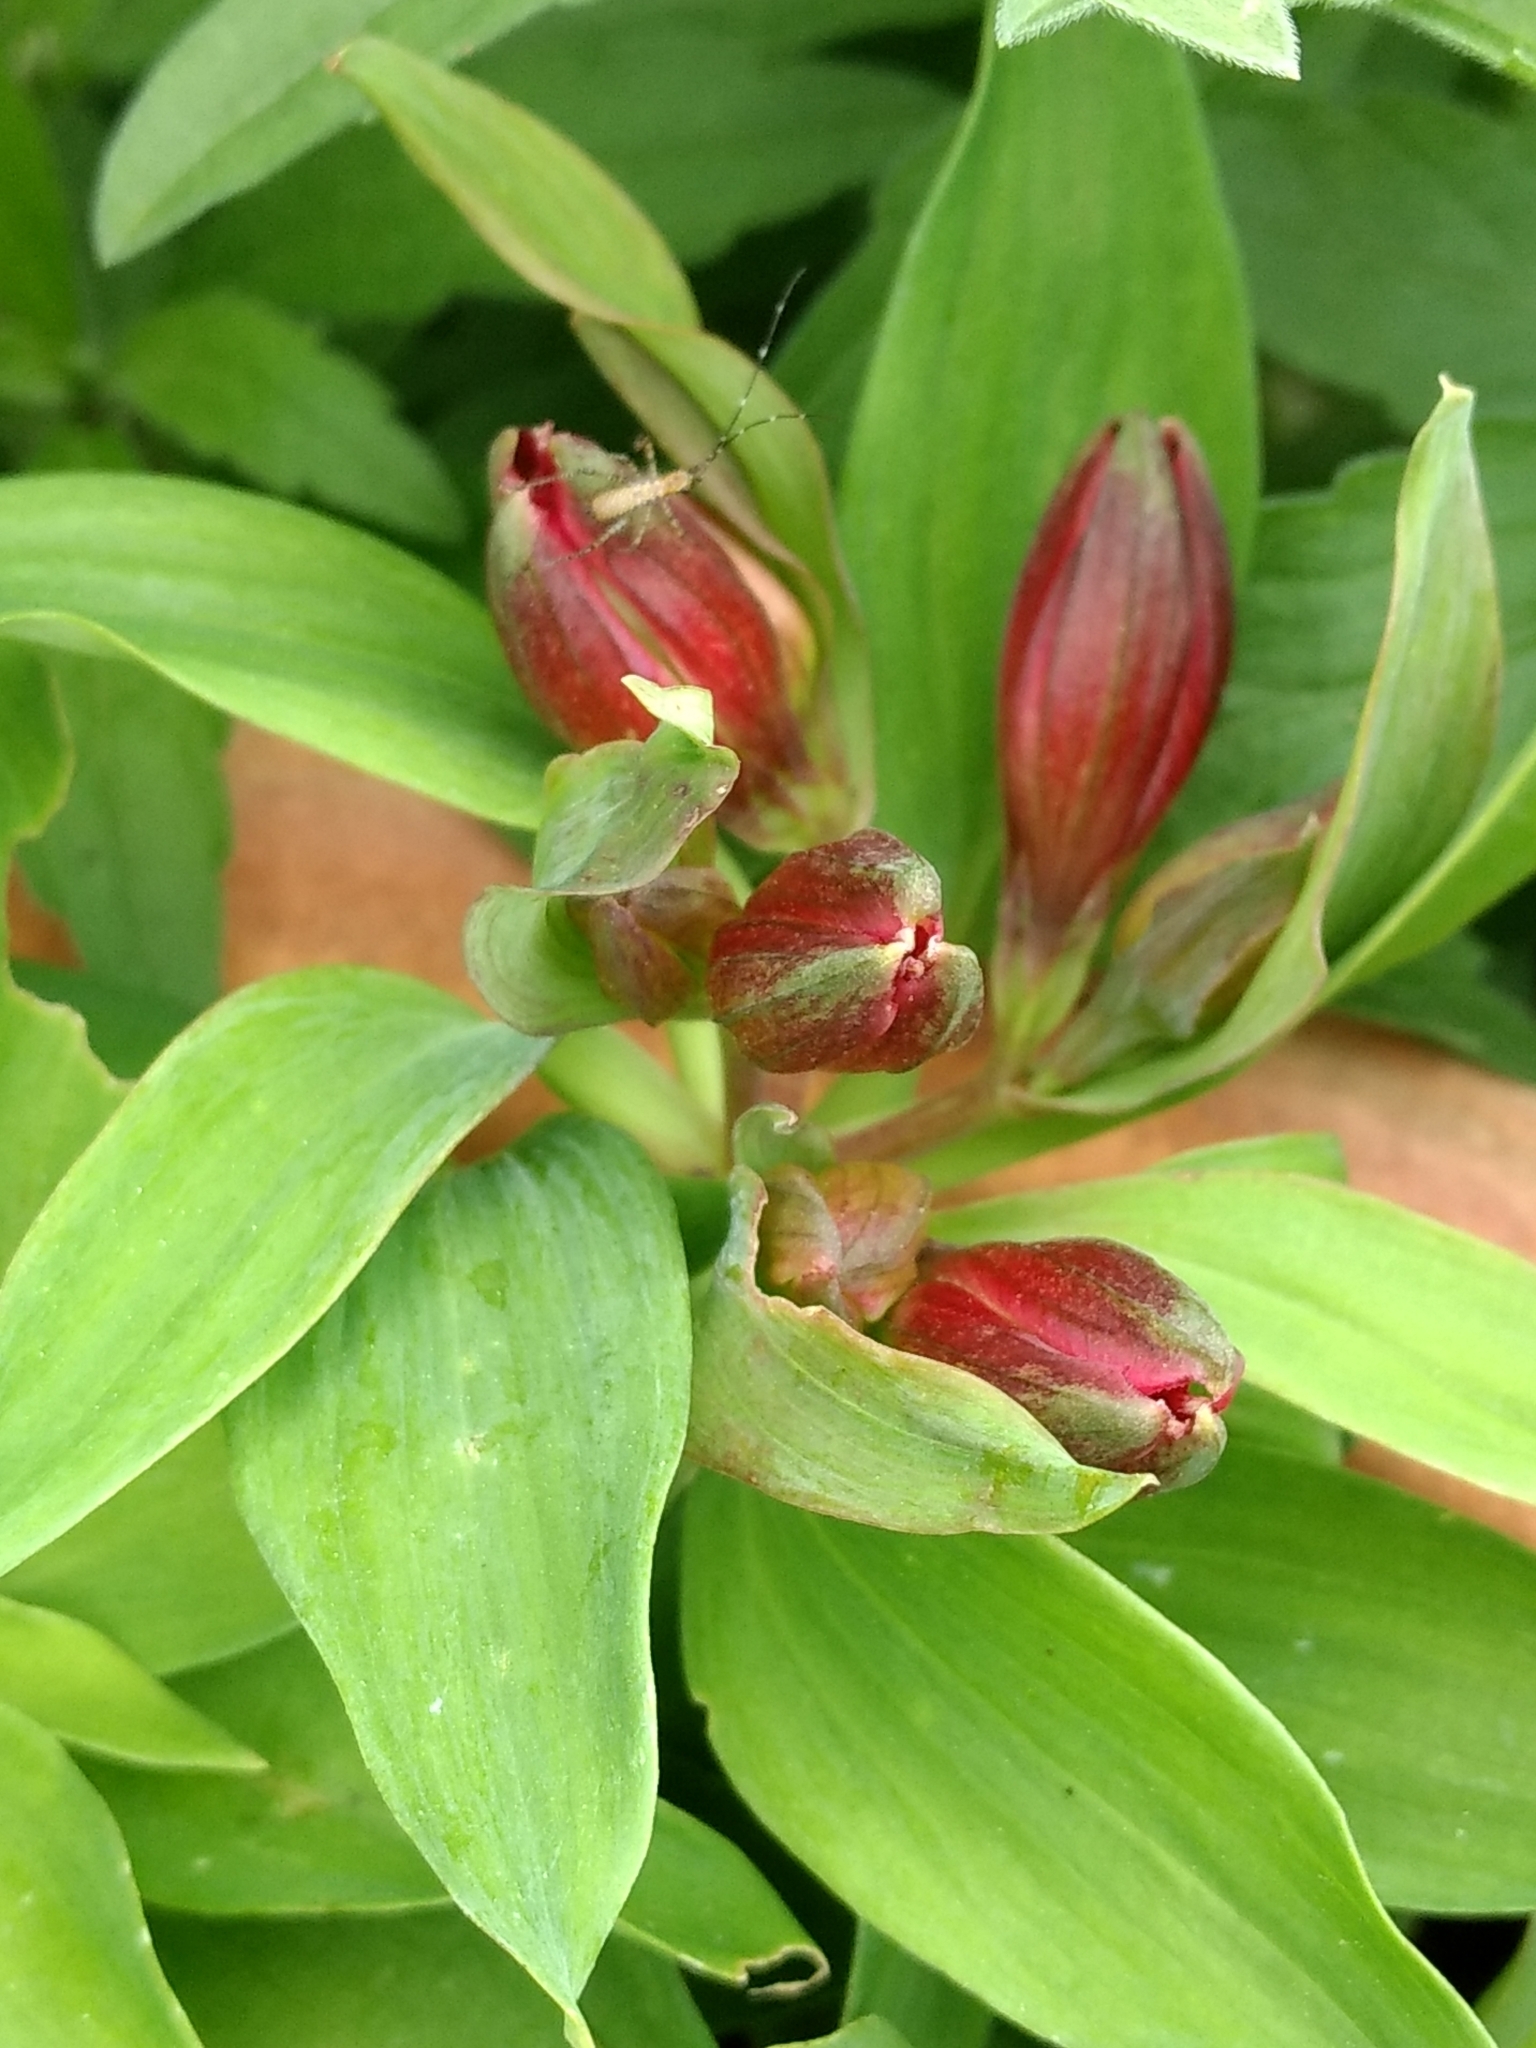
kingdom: Animalia
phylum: Arthropoda
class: Insecta
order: Orthoptera
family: Tettigoniidae
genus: Scudderia
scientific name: Scudderia
